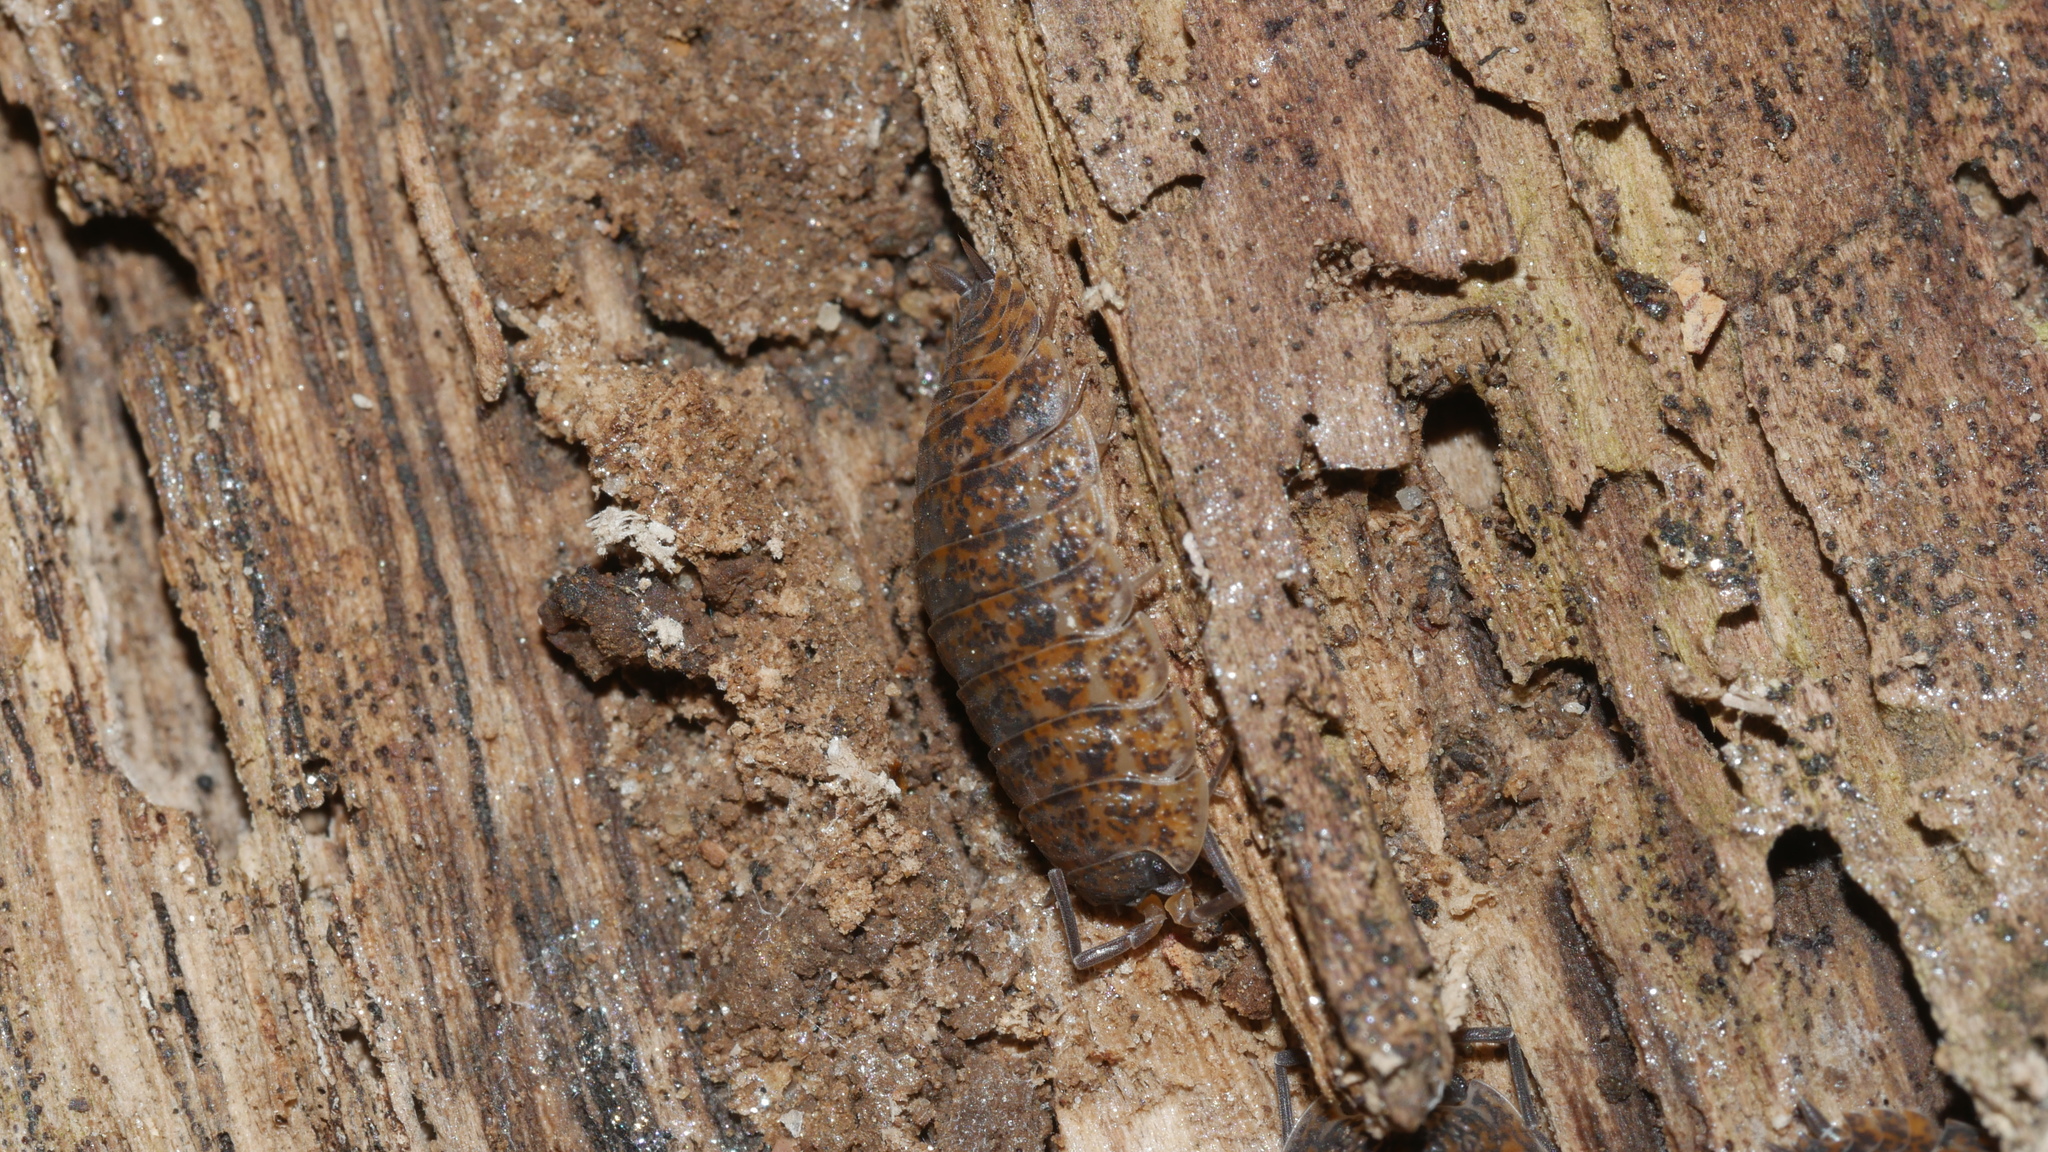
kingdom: Animalia
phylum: Arthropoda
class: Malacostraca
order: Isopoda
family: Trachelipodidae
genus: Trachelipus
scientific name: Trachelipus rathkii
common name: Isopod
